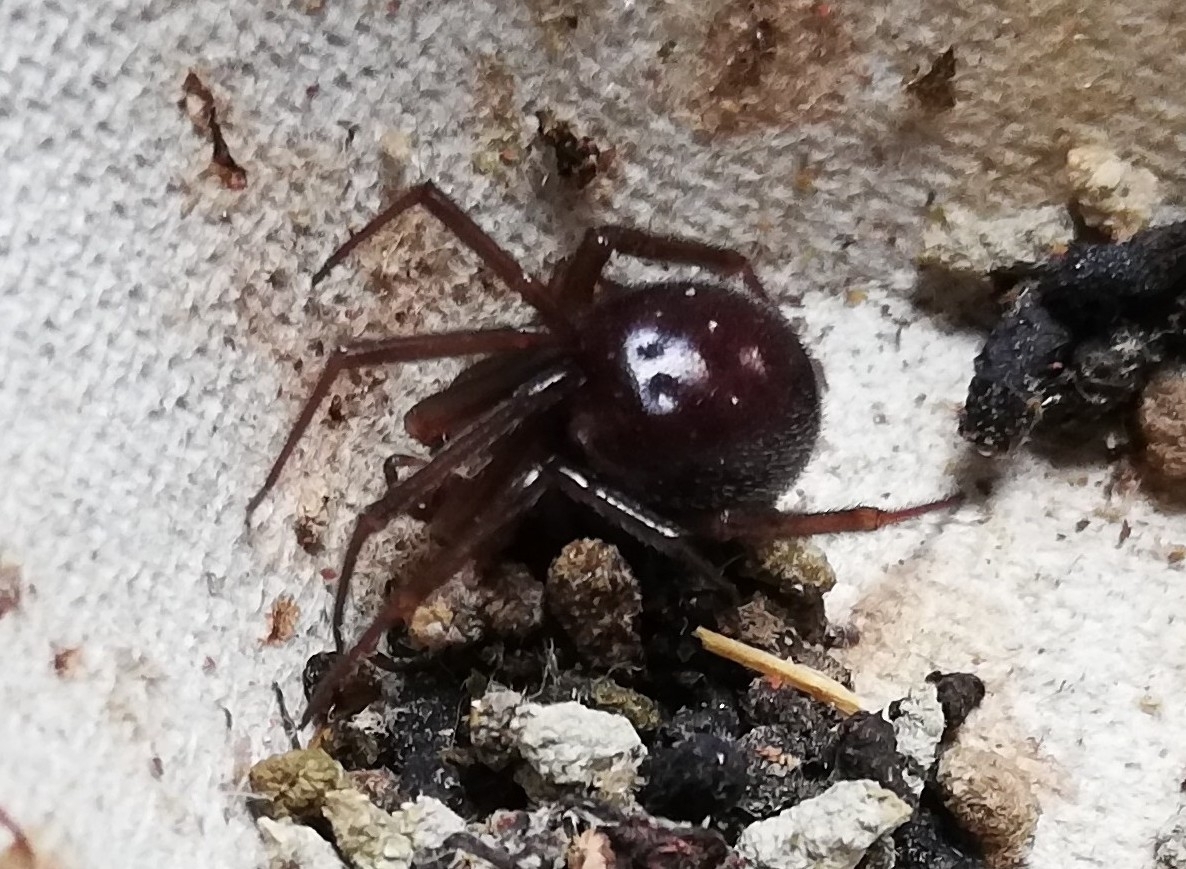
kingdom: Animalia
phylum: Arthropoda
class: Arachnida
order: Araneae
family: Theridiidae
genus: Steatoda
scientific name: Steatoda grossa
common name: False black widow
